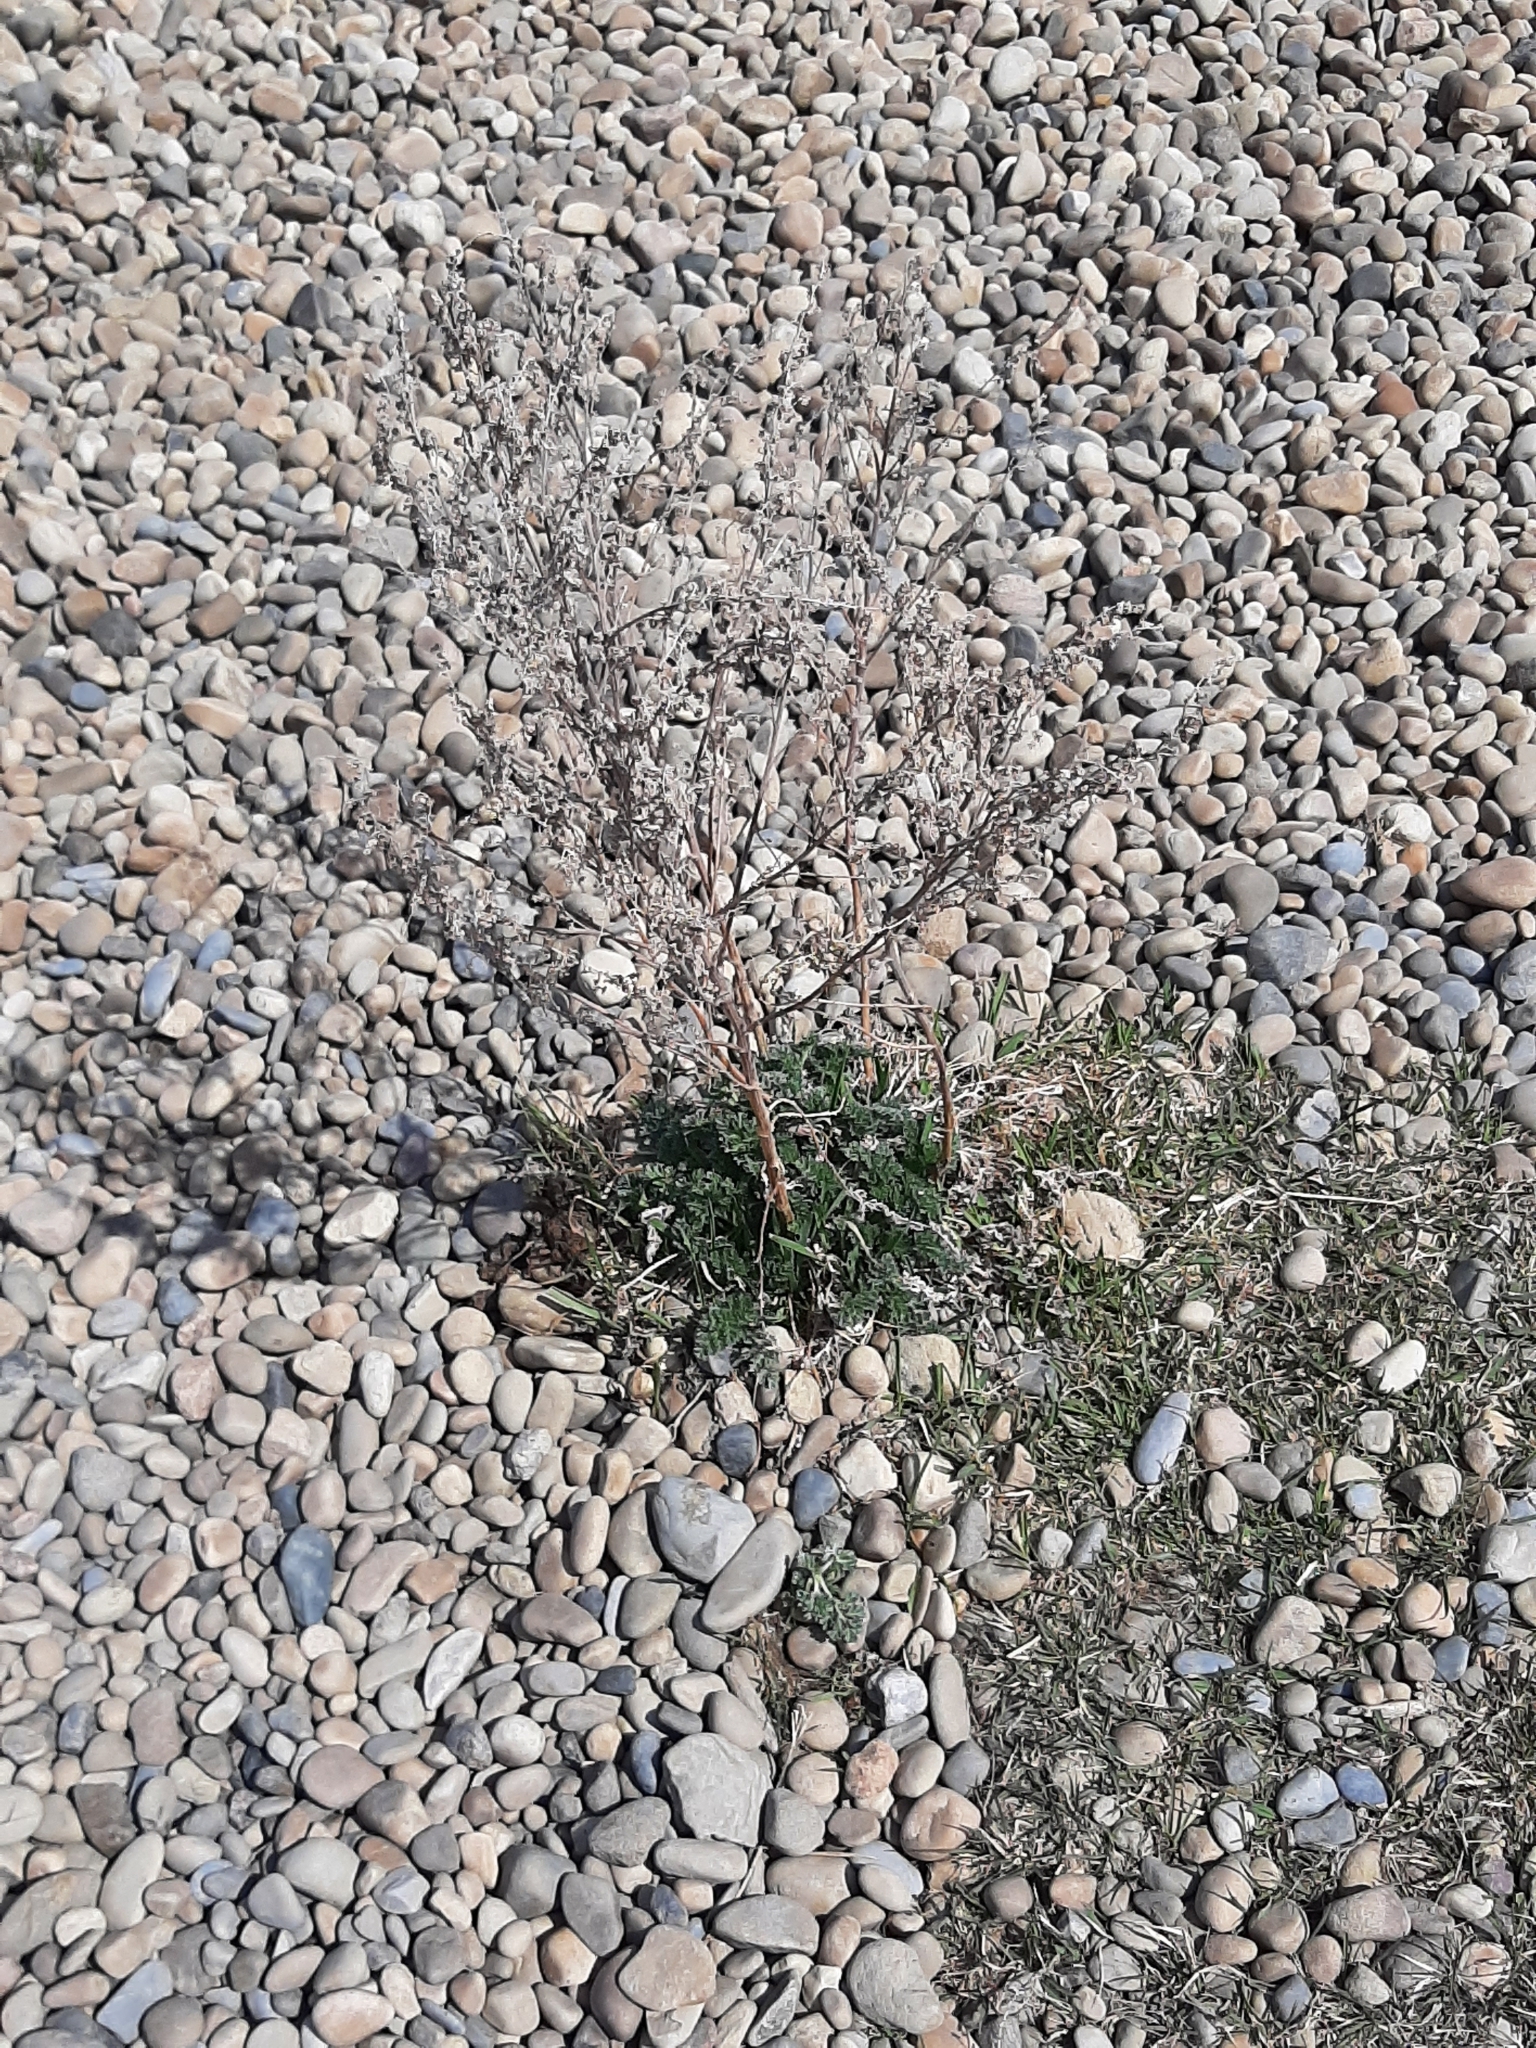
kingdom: Plantae
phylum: Tracheophyta
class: Magnoliopsida
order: Asterales
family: Asteraceae
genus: Artemisia
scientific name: Artemisia absinthium
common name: Wormwood
